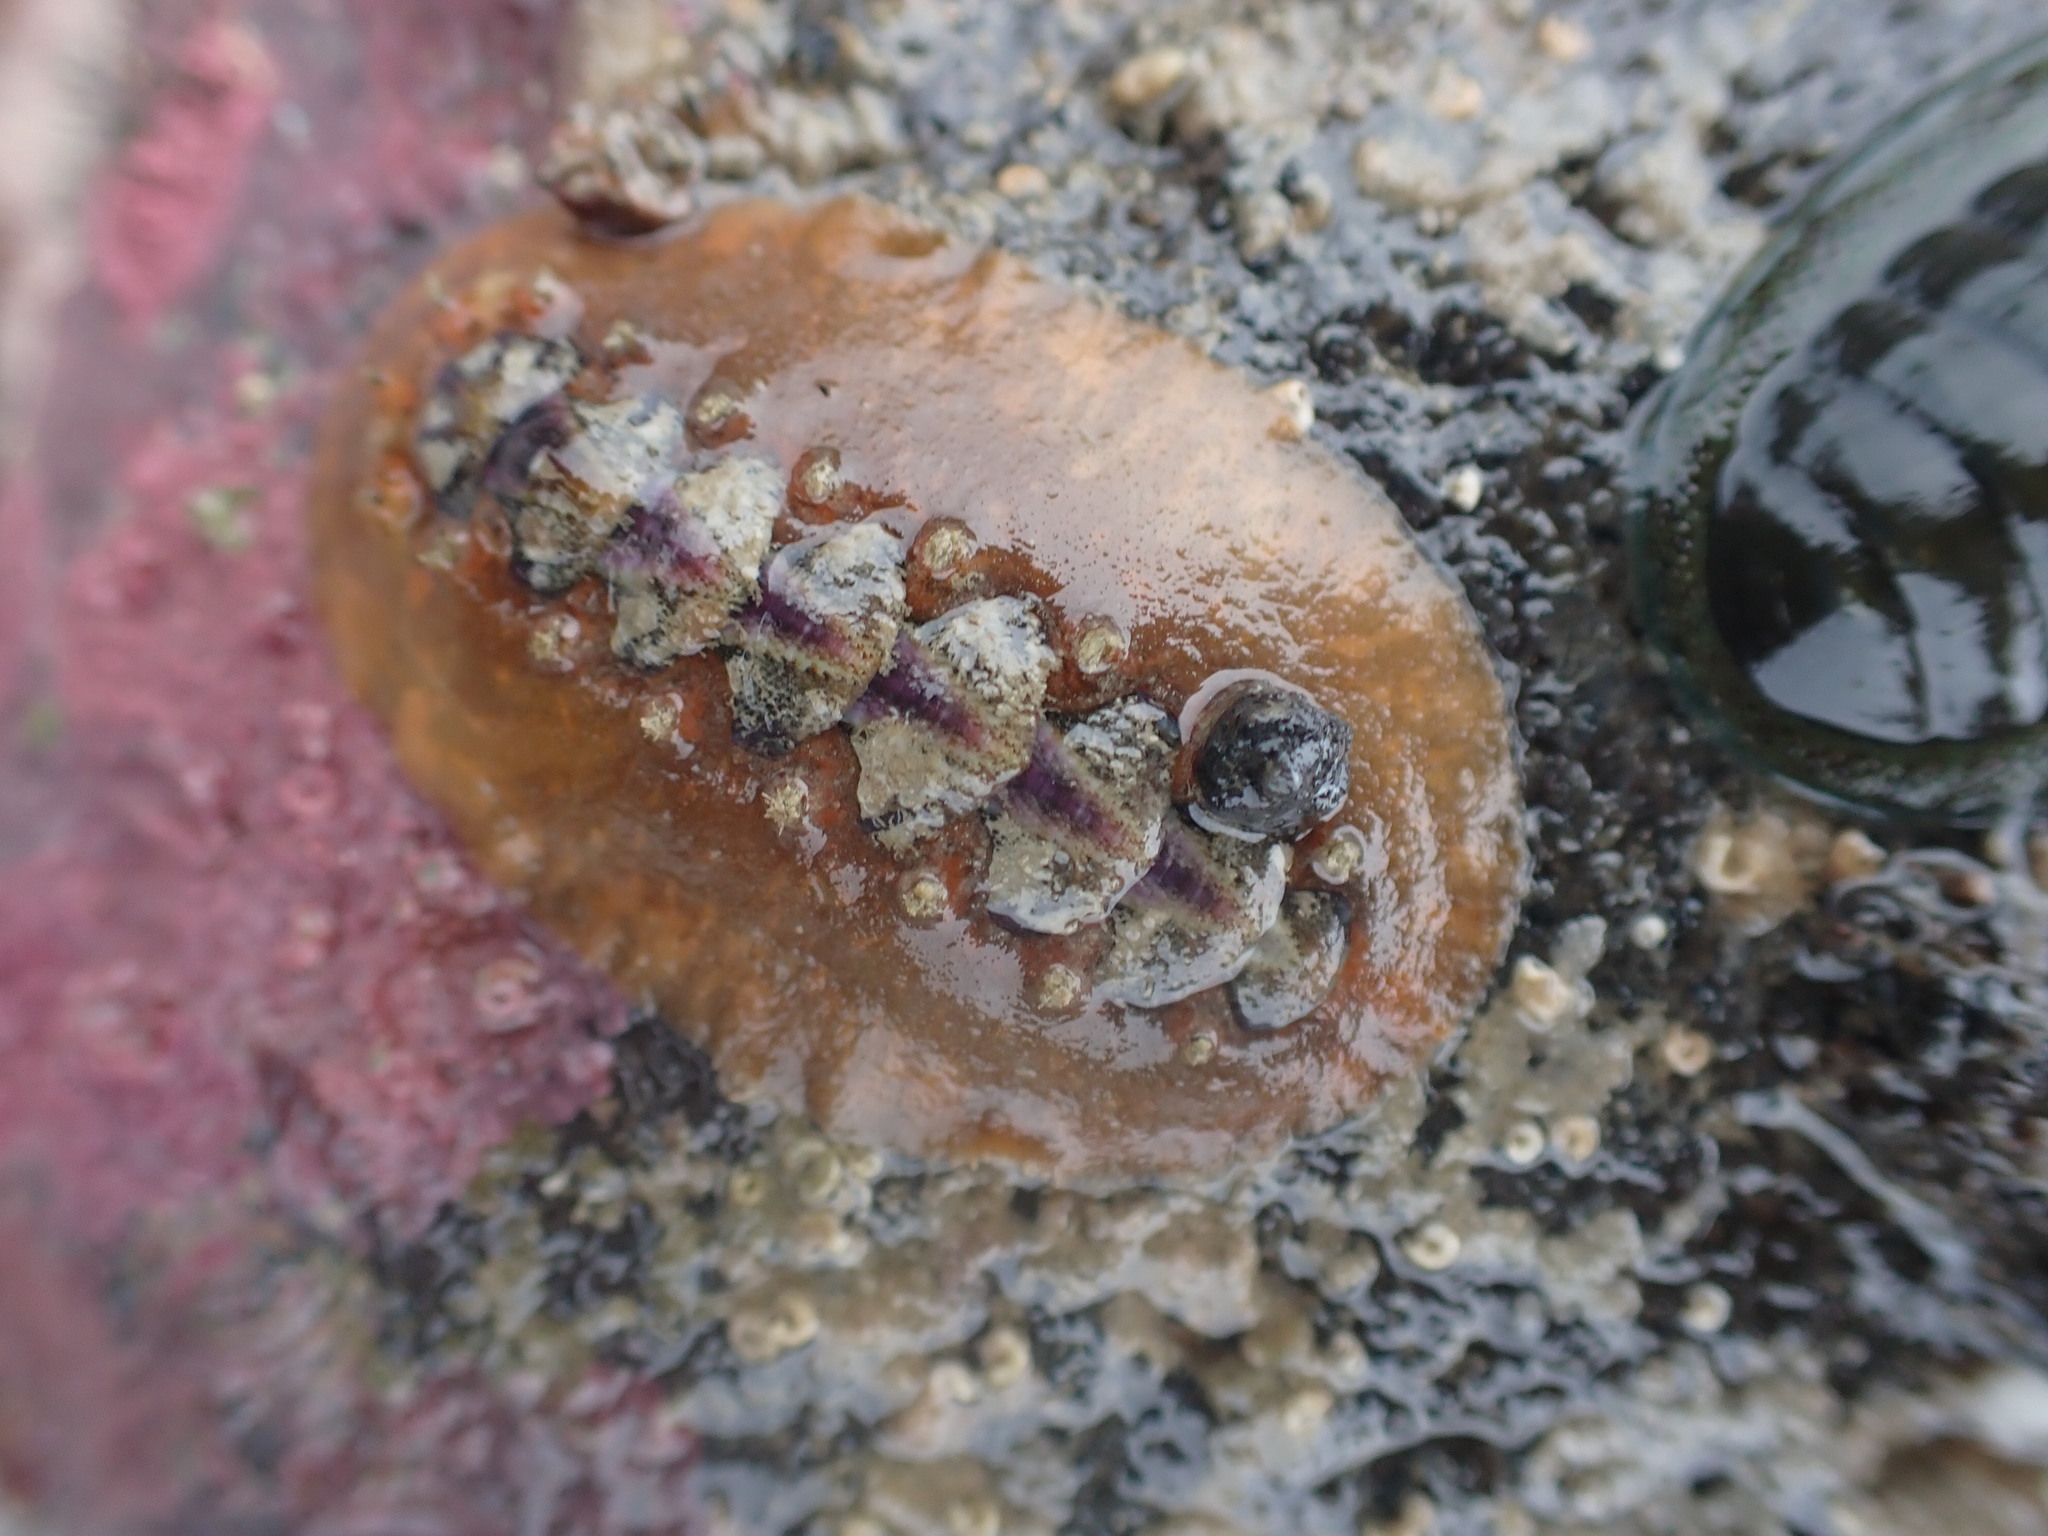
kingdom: Animalia
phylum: Mollusca
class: Polyplacophora
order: Chitonida
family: Acanthochitonidae
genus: Notoplax
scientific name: Notoplax violacea
